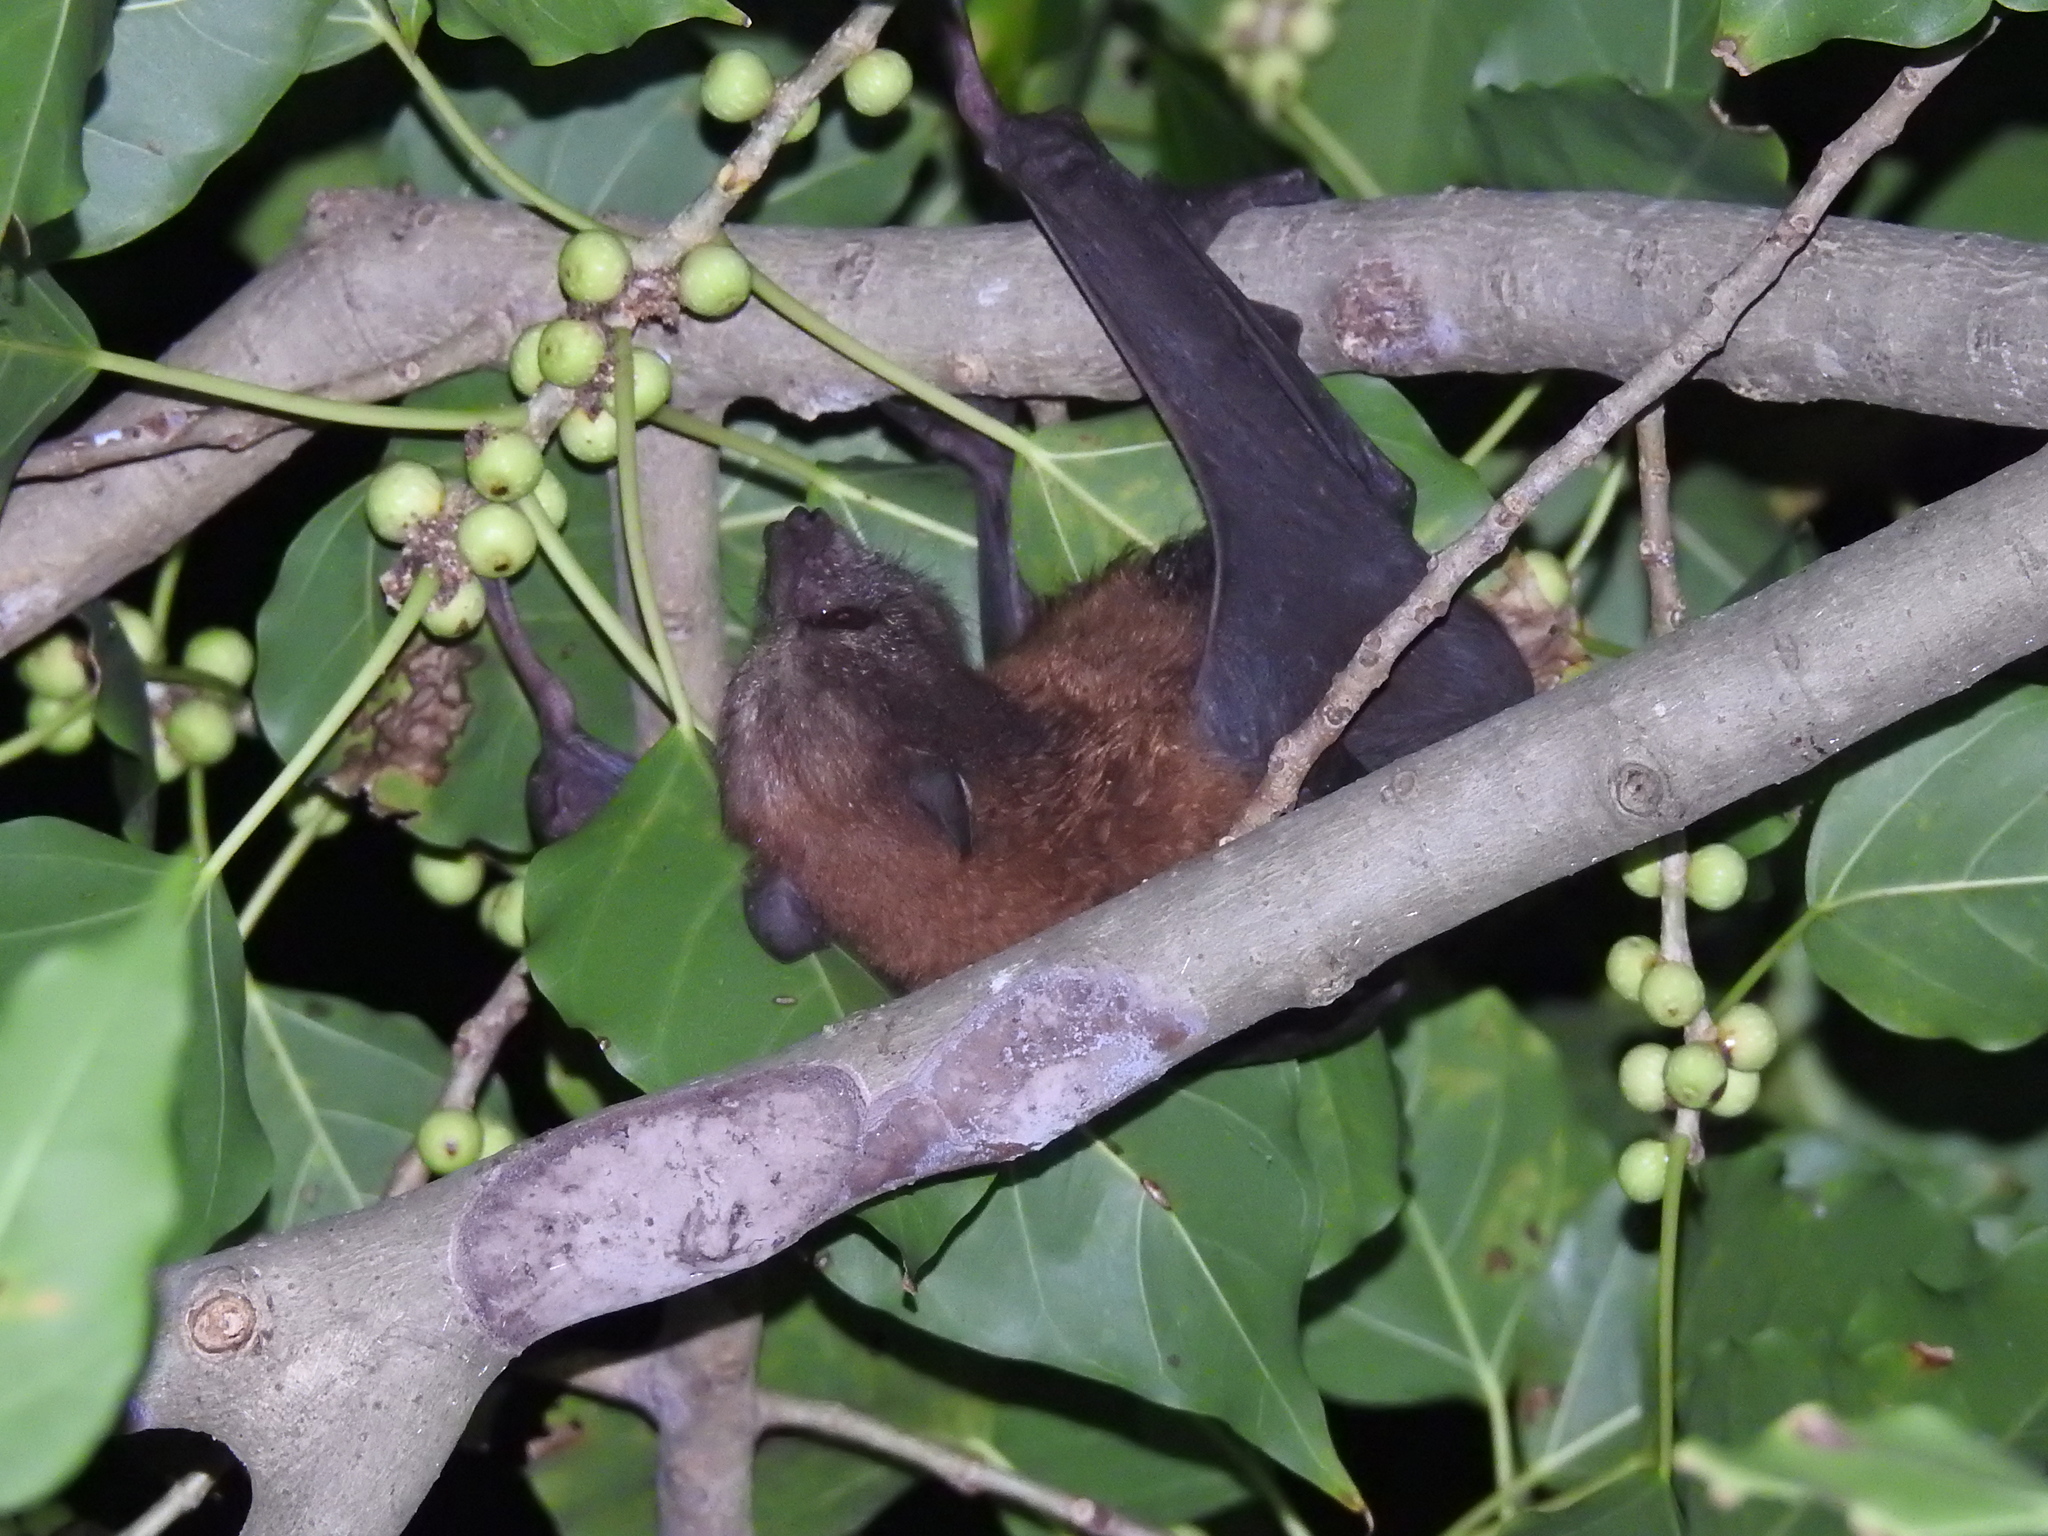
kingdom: Animalia
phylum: Chordata
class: Mammalia
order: Chiroptera
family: Pteropodidae
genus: Pteropus
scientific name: Pteropus hypomelanus
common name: Variable flying fox
